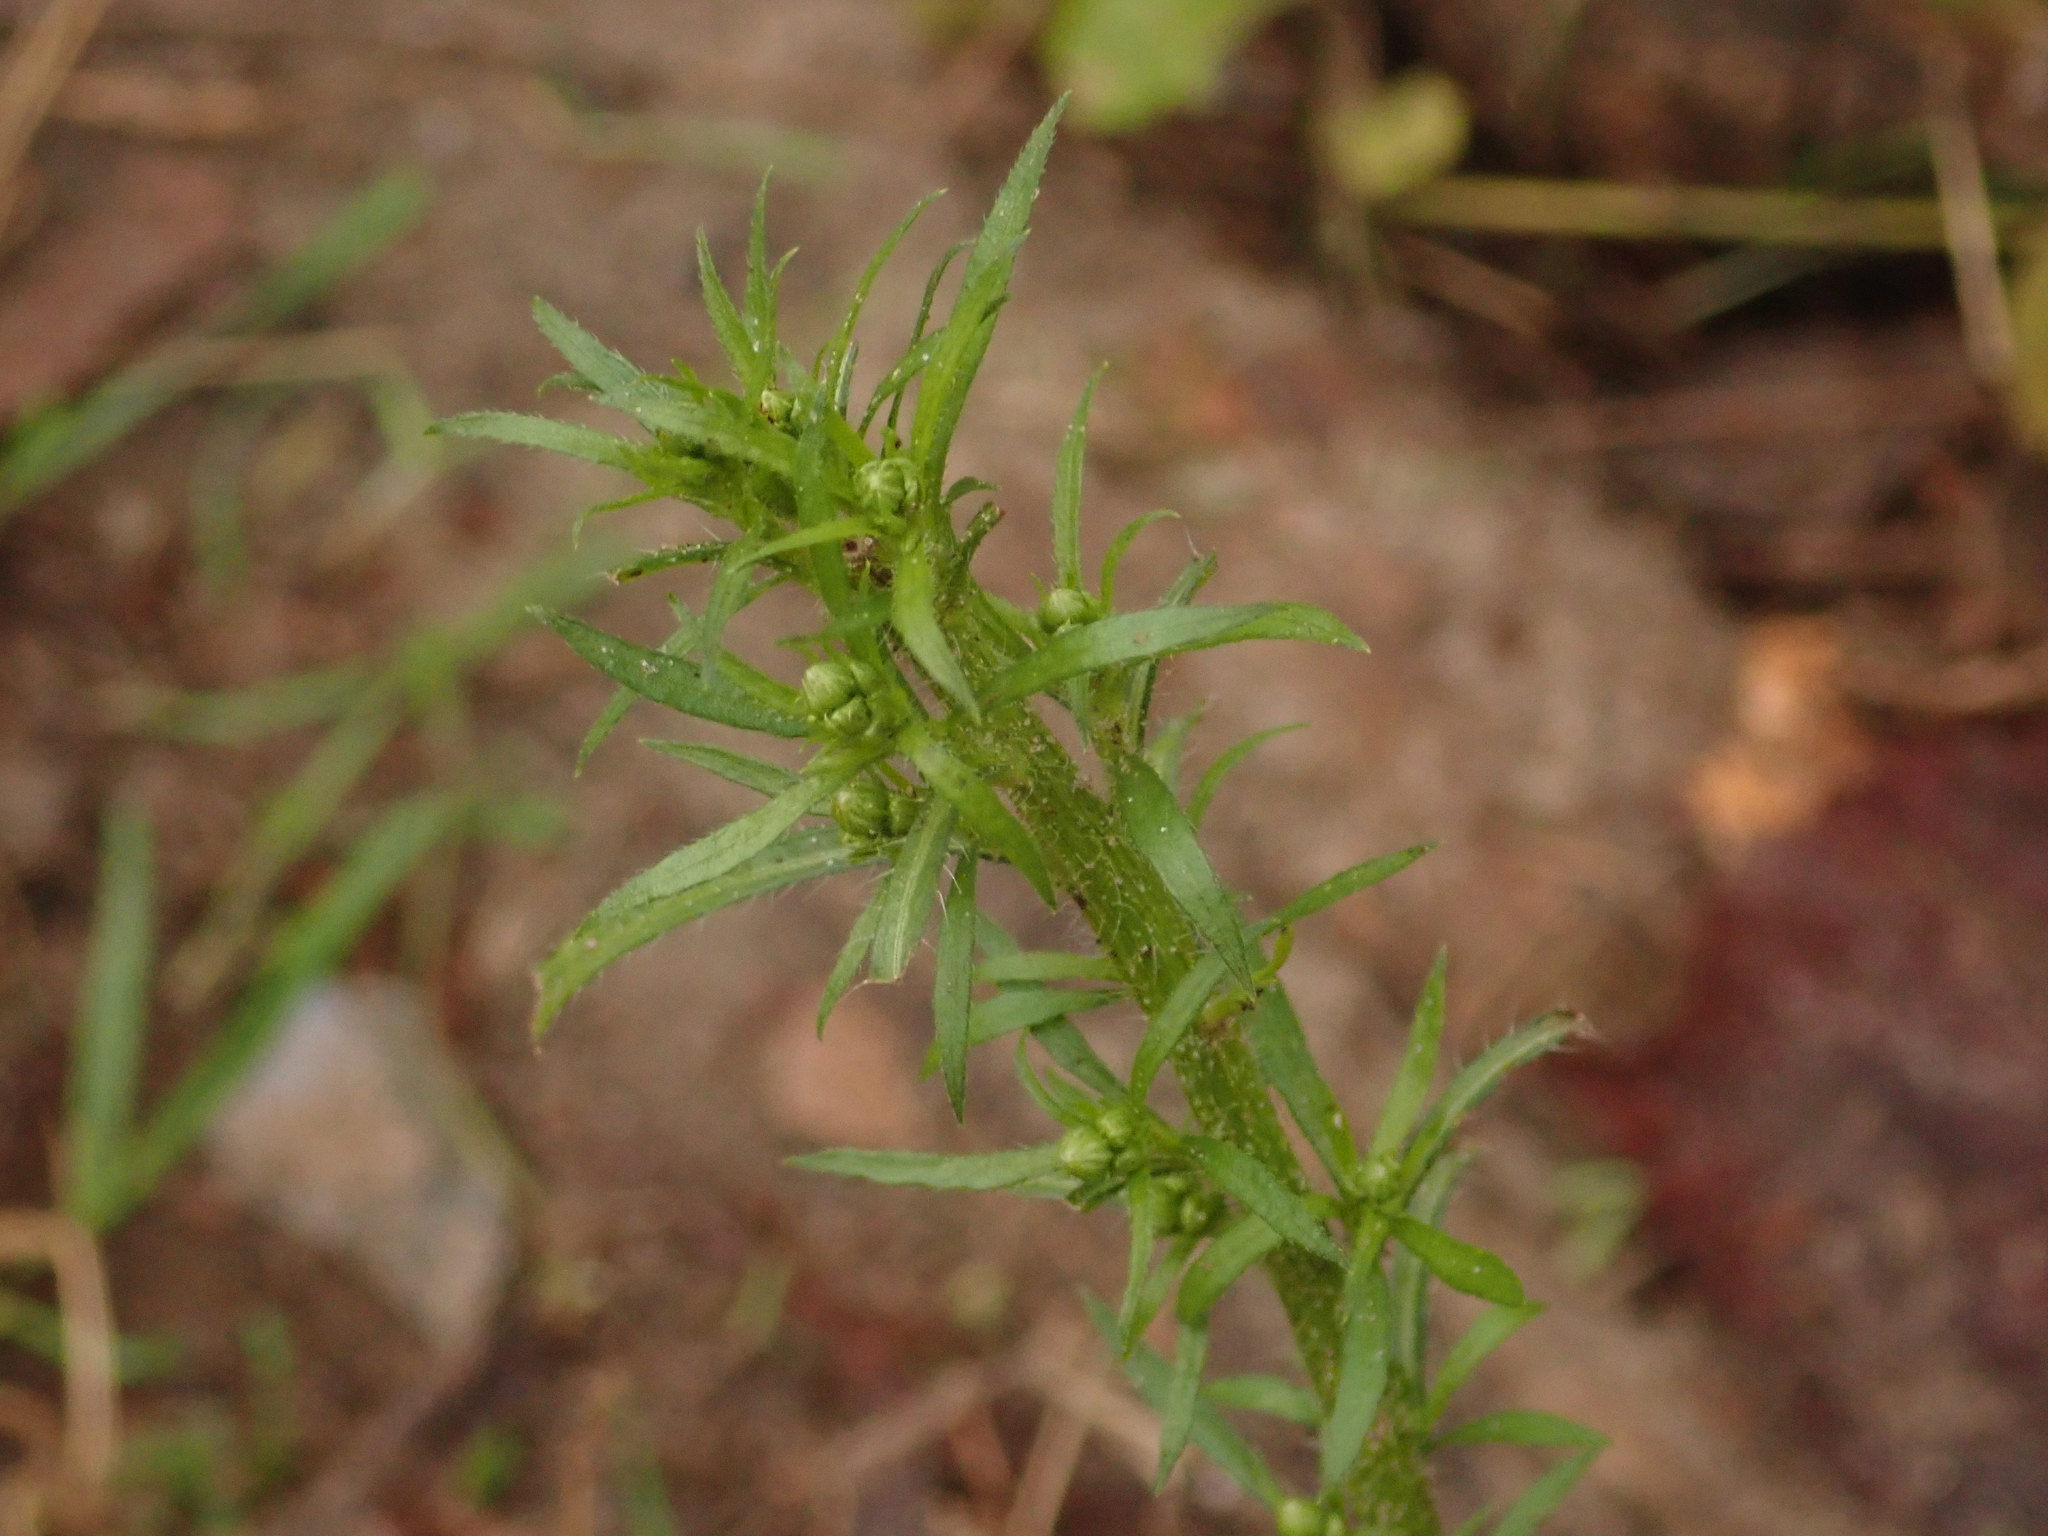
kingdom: Plantae
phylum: Tracheophyta
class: Magnoliopsida
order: Asterales
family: Asteraceae
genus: Erigeron
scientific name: Erigeron canadensis
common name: Canadian fleabane
